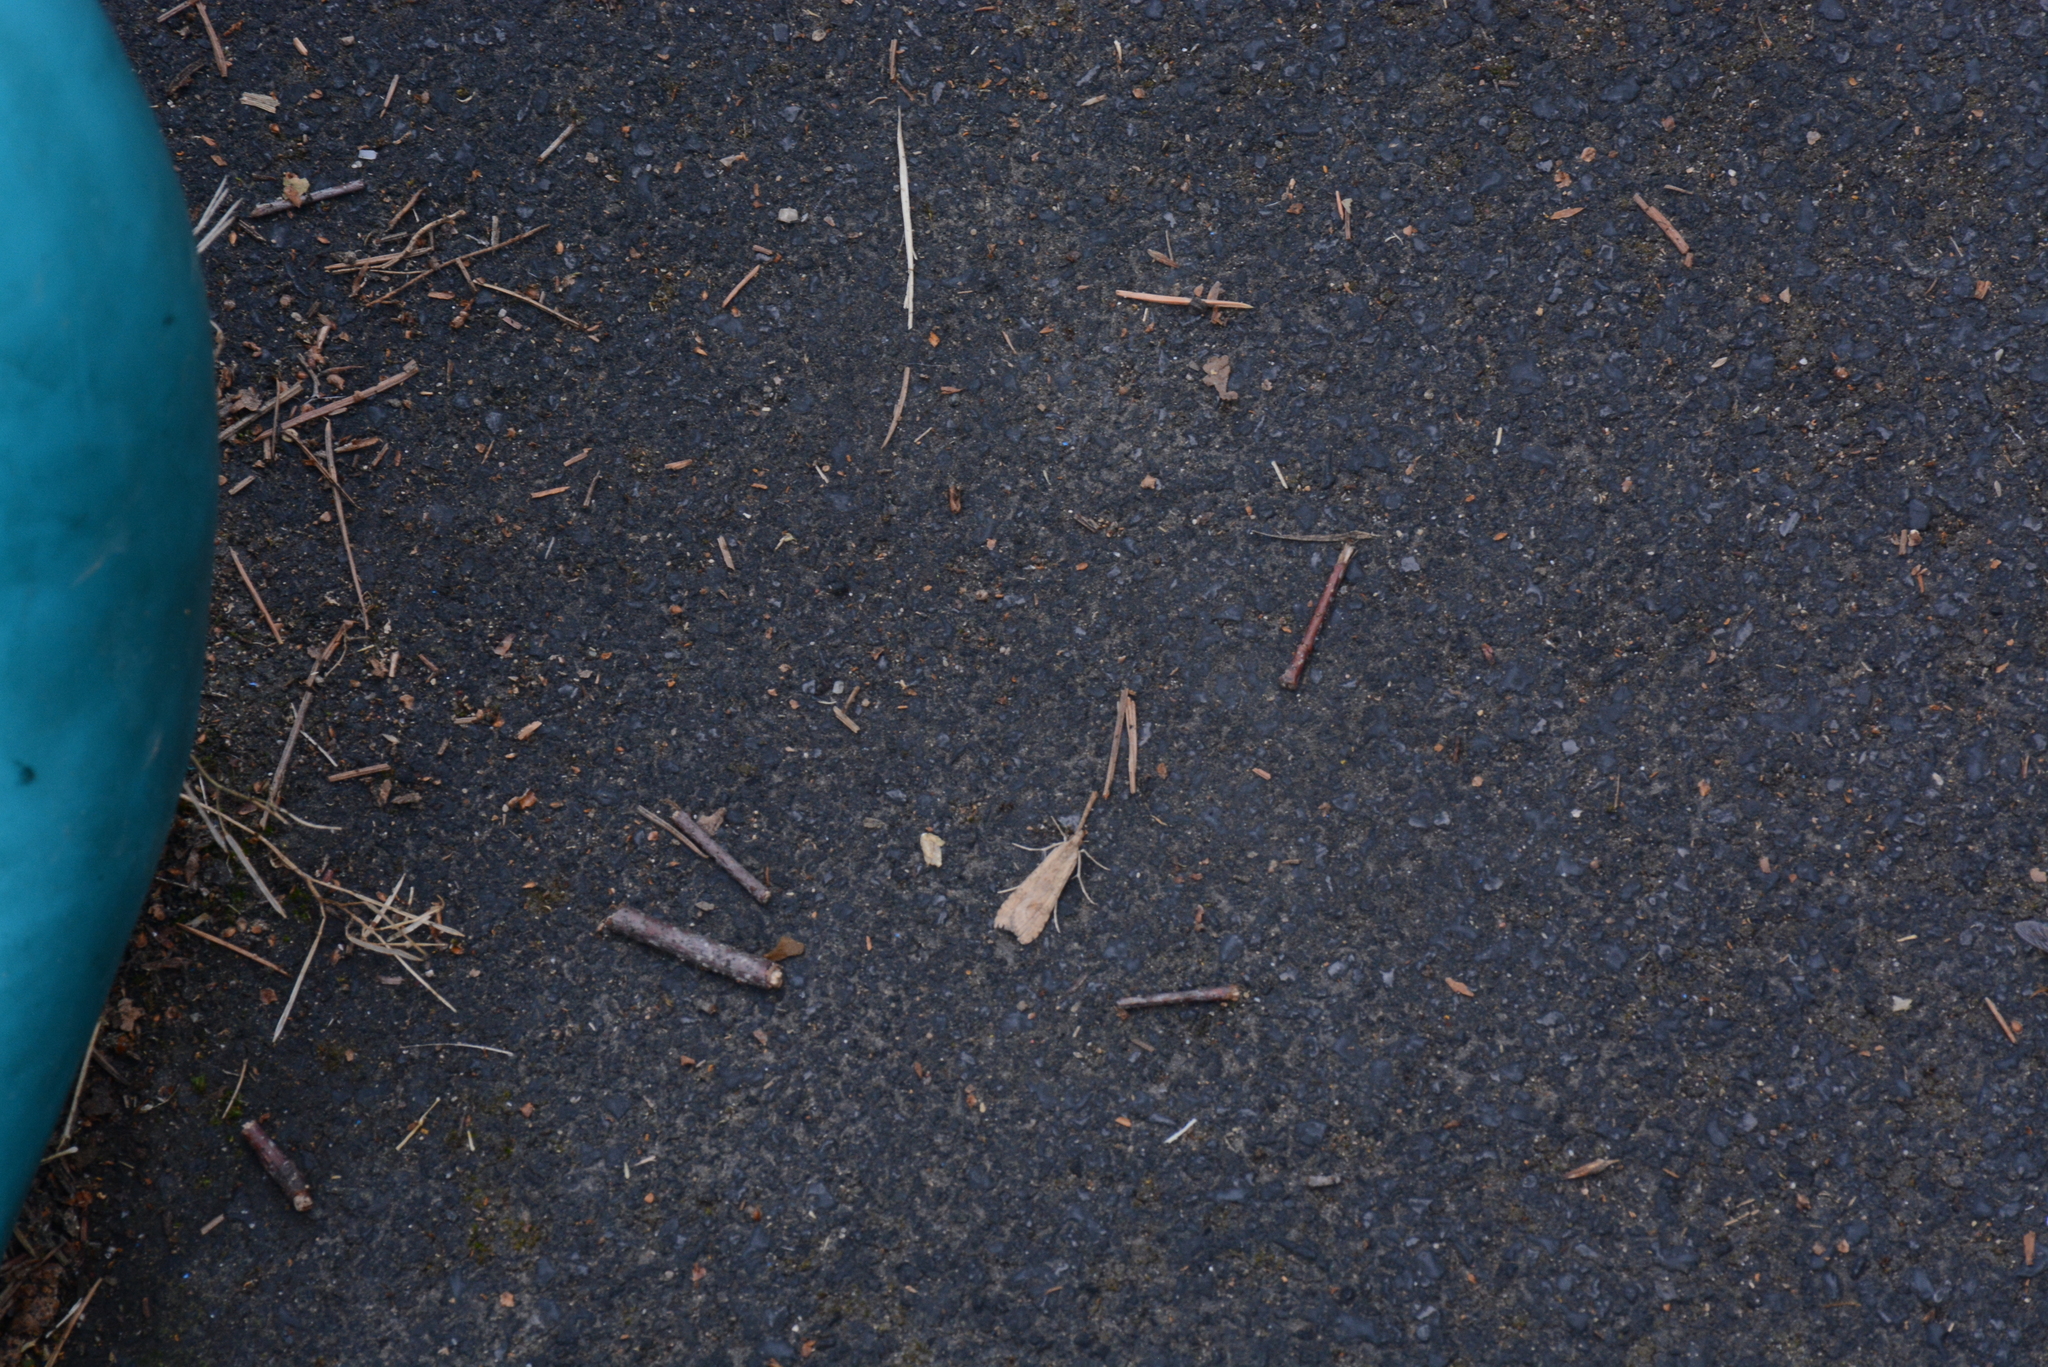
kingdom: Animalia
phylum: Arthropoda
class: Insecta
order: Lepidoptera
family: Crambidae
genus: Nomophila
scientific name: Nomophila noctuella
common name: Rush veneer
